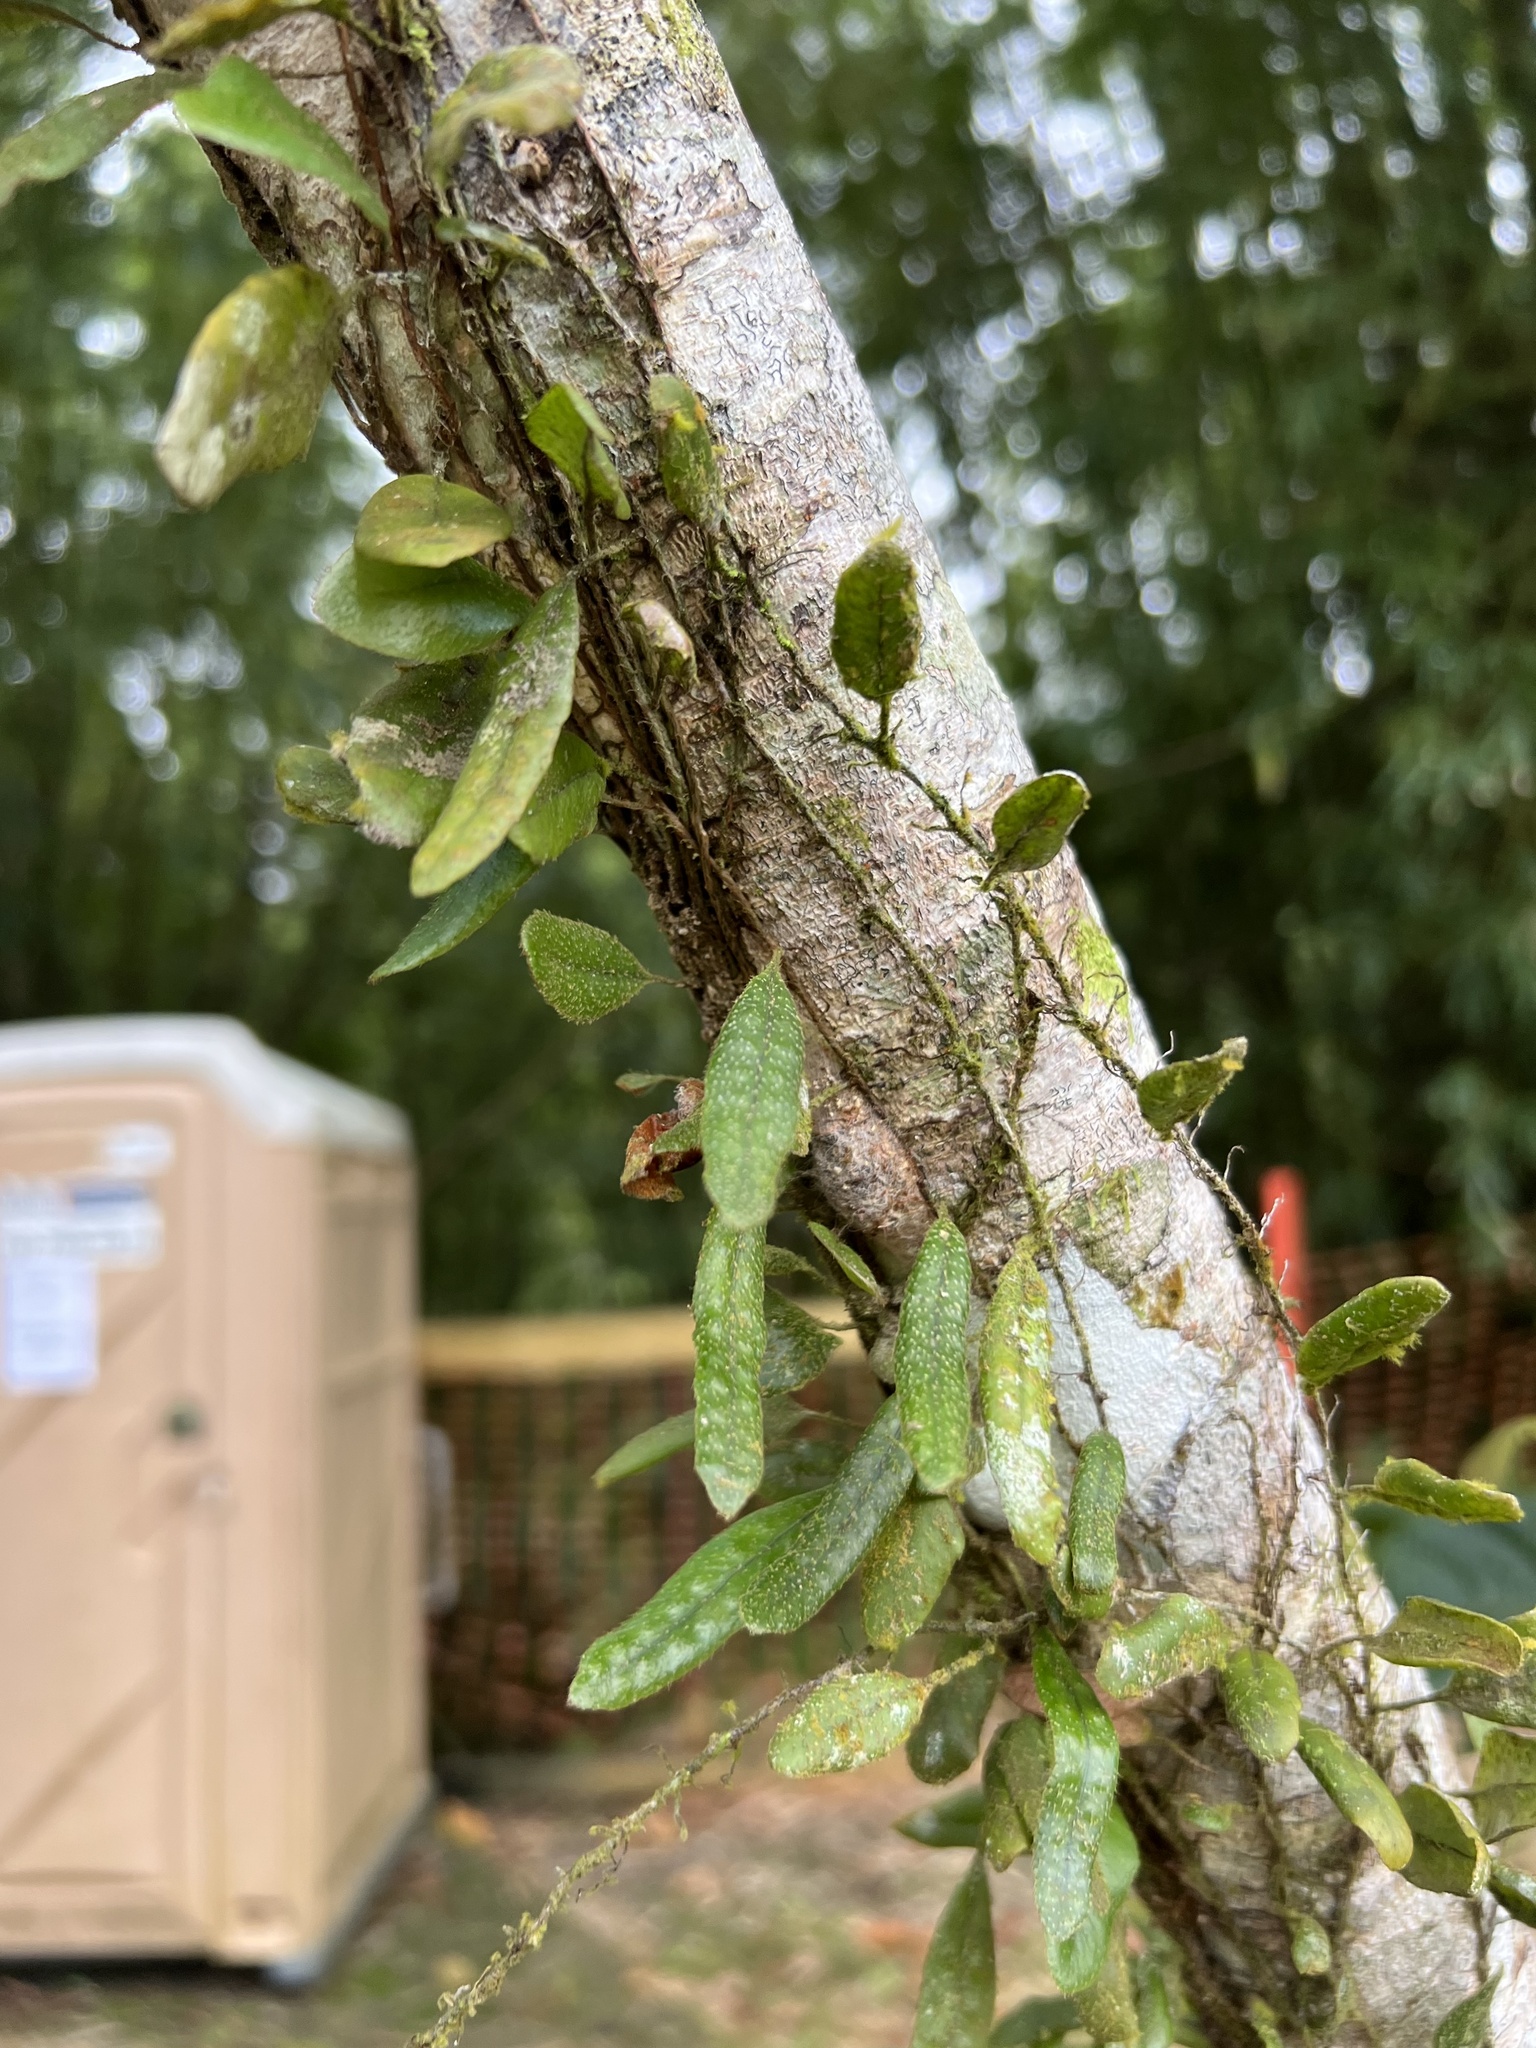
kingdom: Plantae
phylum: Tracheophyta
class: Polypodiopsida
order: Polypodiales
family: Polypodiaceae
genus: Microgramma
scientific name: Microgramma piloselloides
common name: Hairy snakefern
